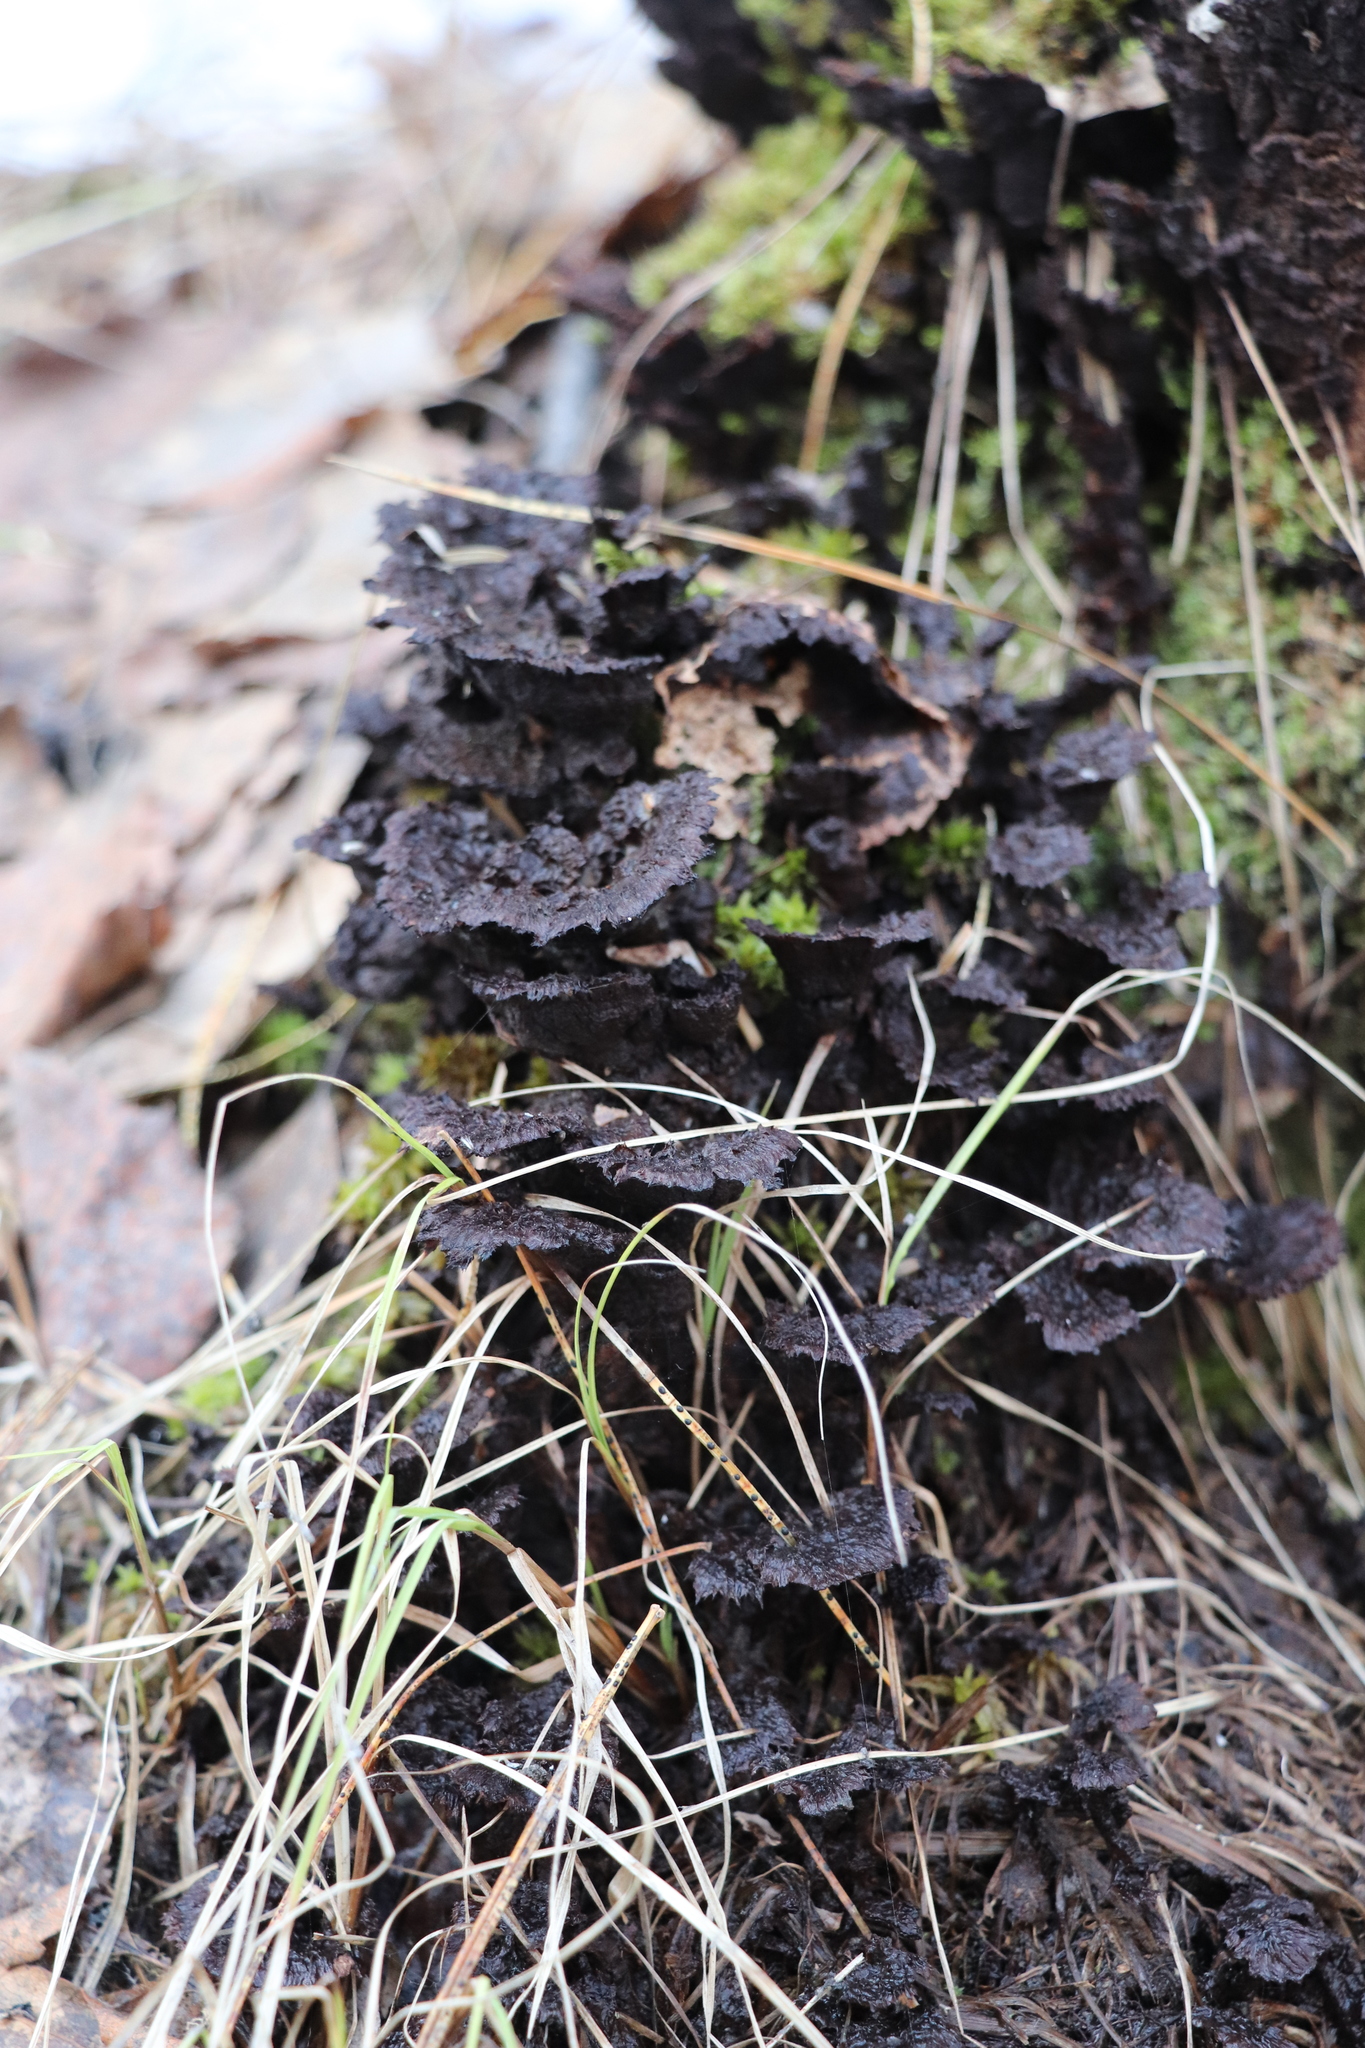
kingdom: Fungi
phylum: Basidiomycota
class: Agaricomycetes
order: Thelephorales
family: Thelephoraceae
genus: Thelephora
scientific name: Thelephora terrestris
